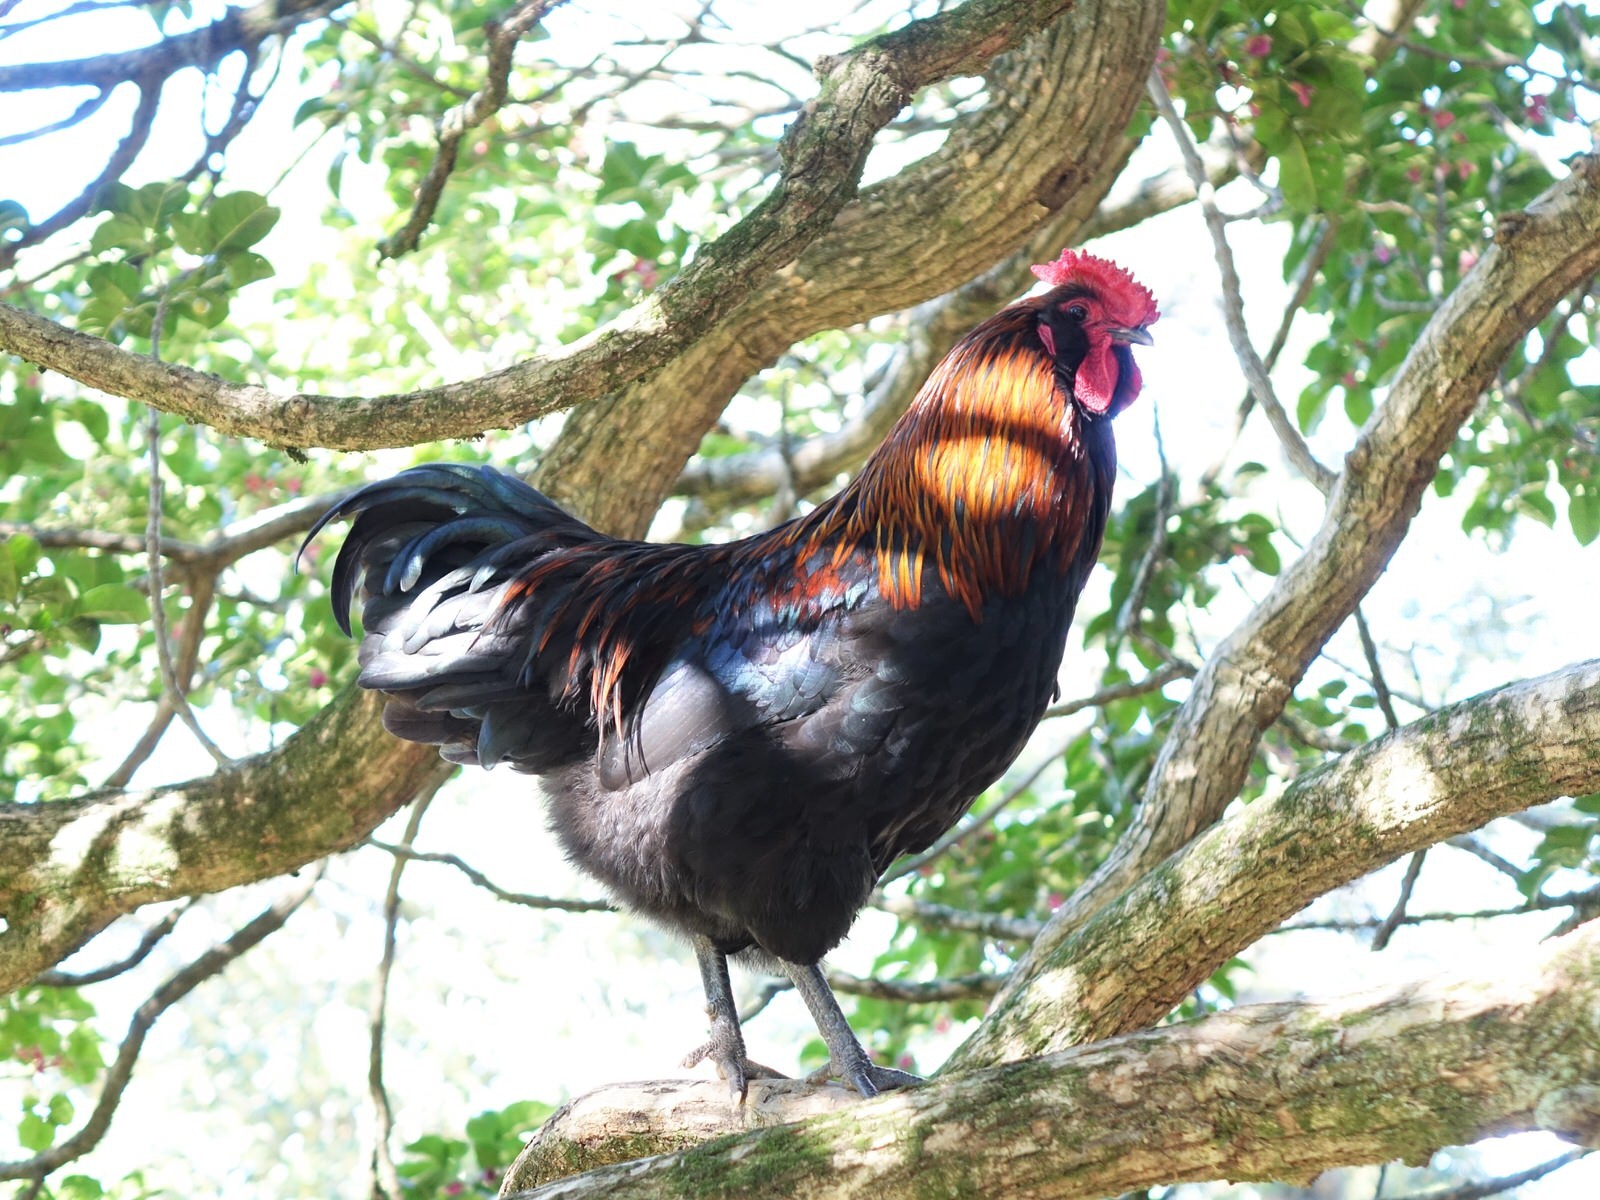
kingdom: Animalia
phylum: Chordata
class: Aves
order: Galliformes
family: Phasianidae
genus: Gallus
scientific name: Gallus gallus
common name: Red junglefowl
